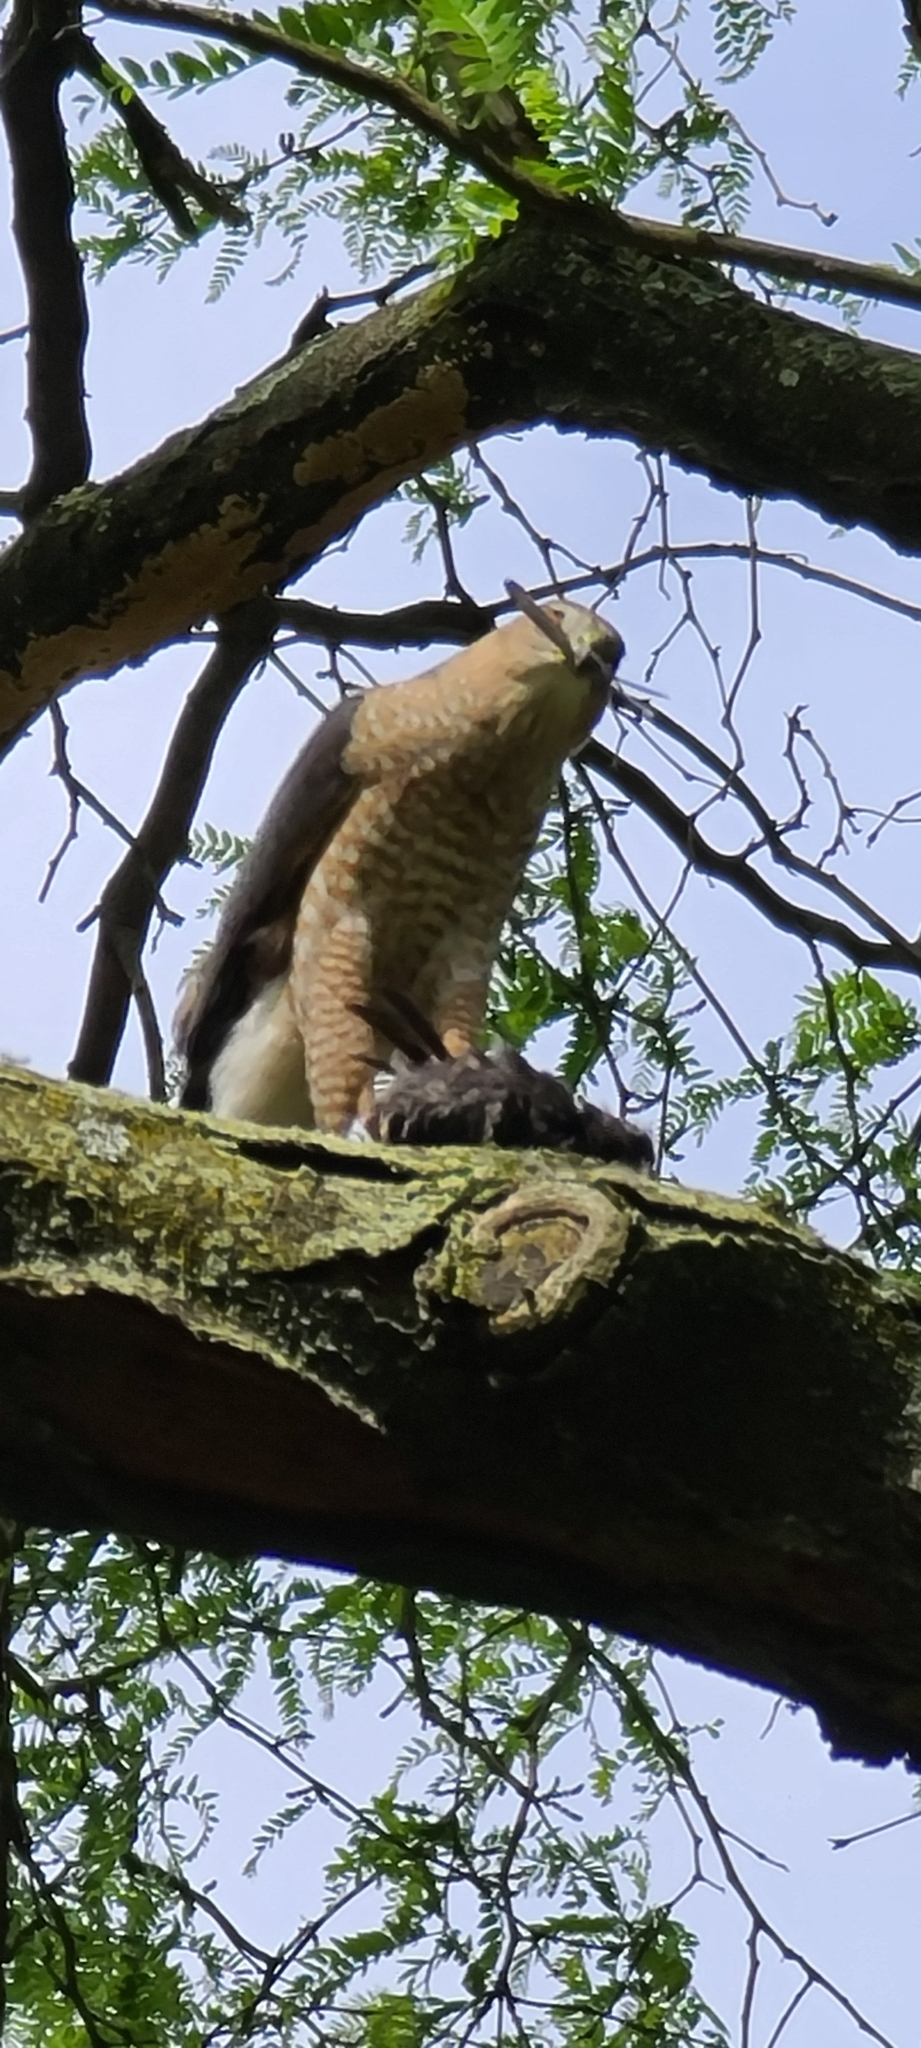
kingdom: Animalia
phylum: Chordata
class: Aves
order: Accipitriformes
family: Accipitridae
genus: Accipiter
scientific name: Accipiter cooperii
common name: Cooper's hawk
